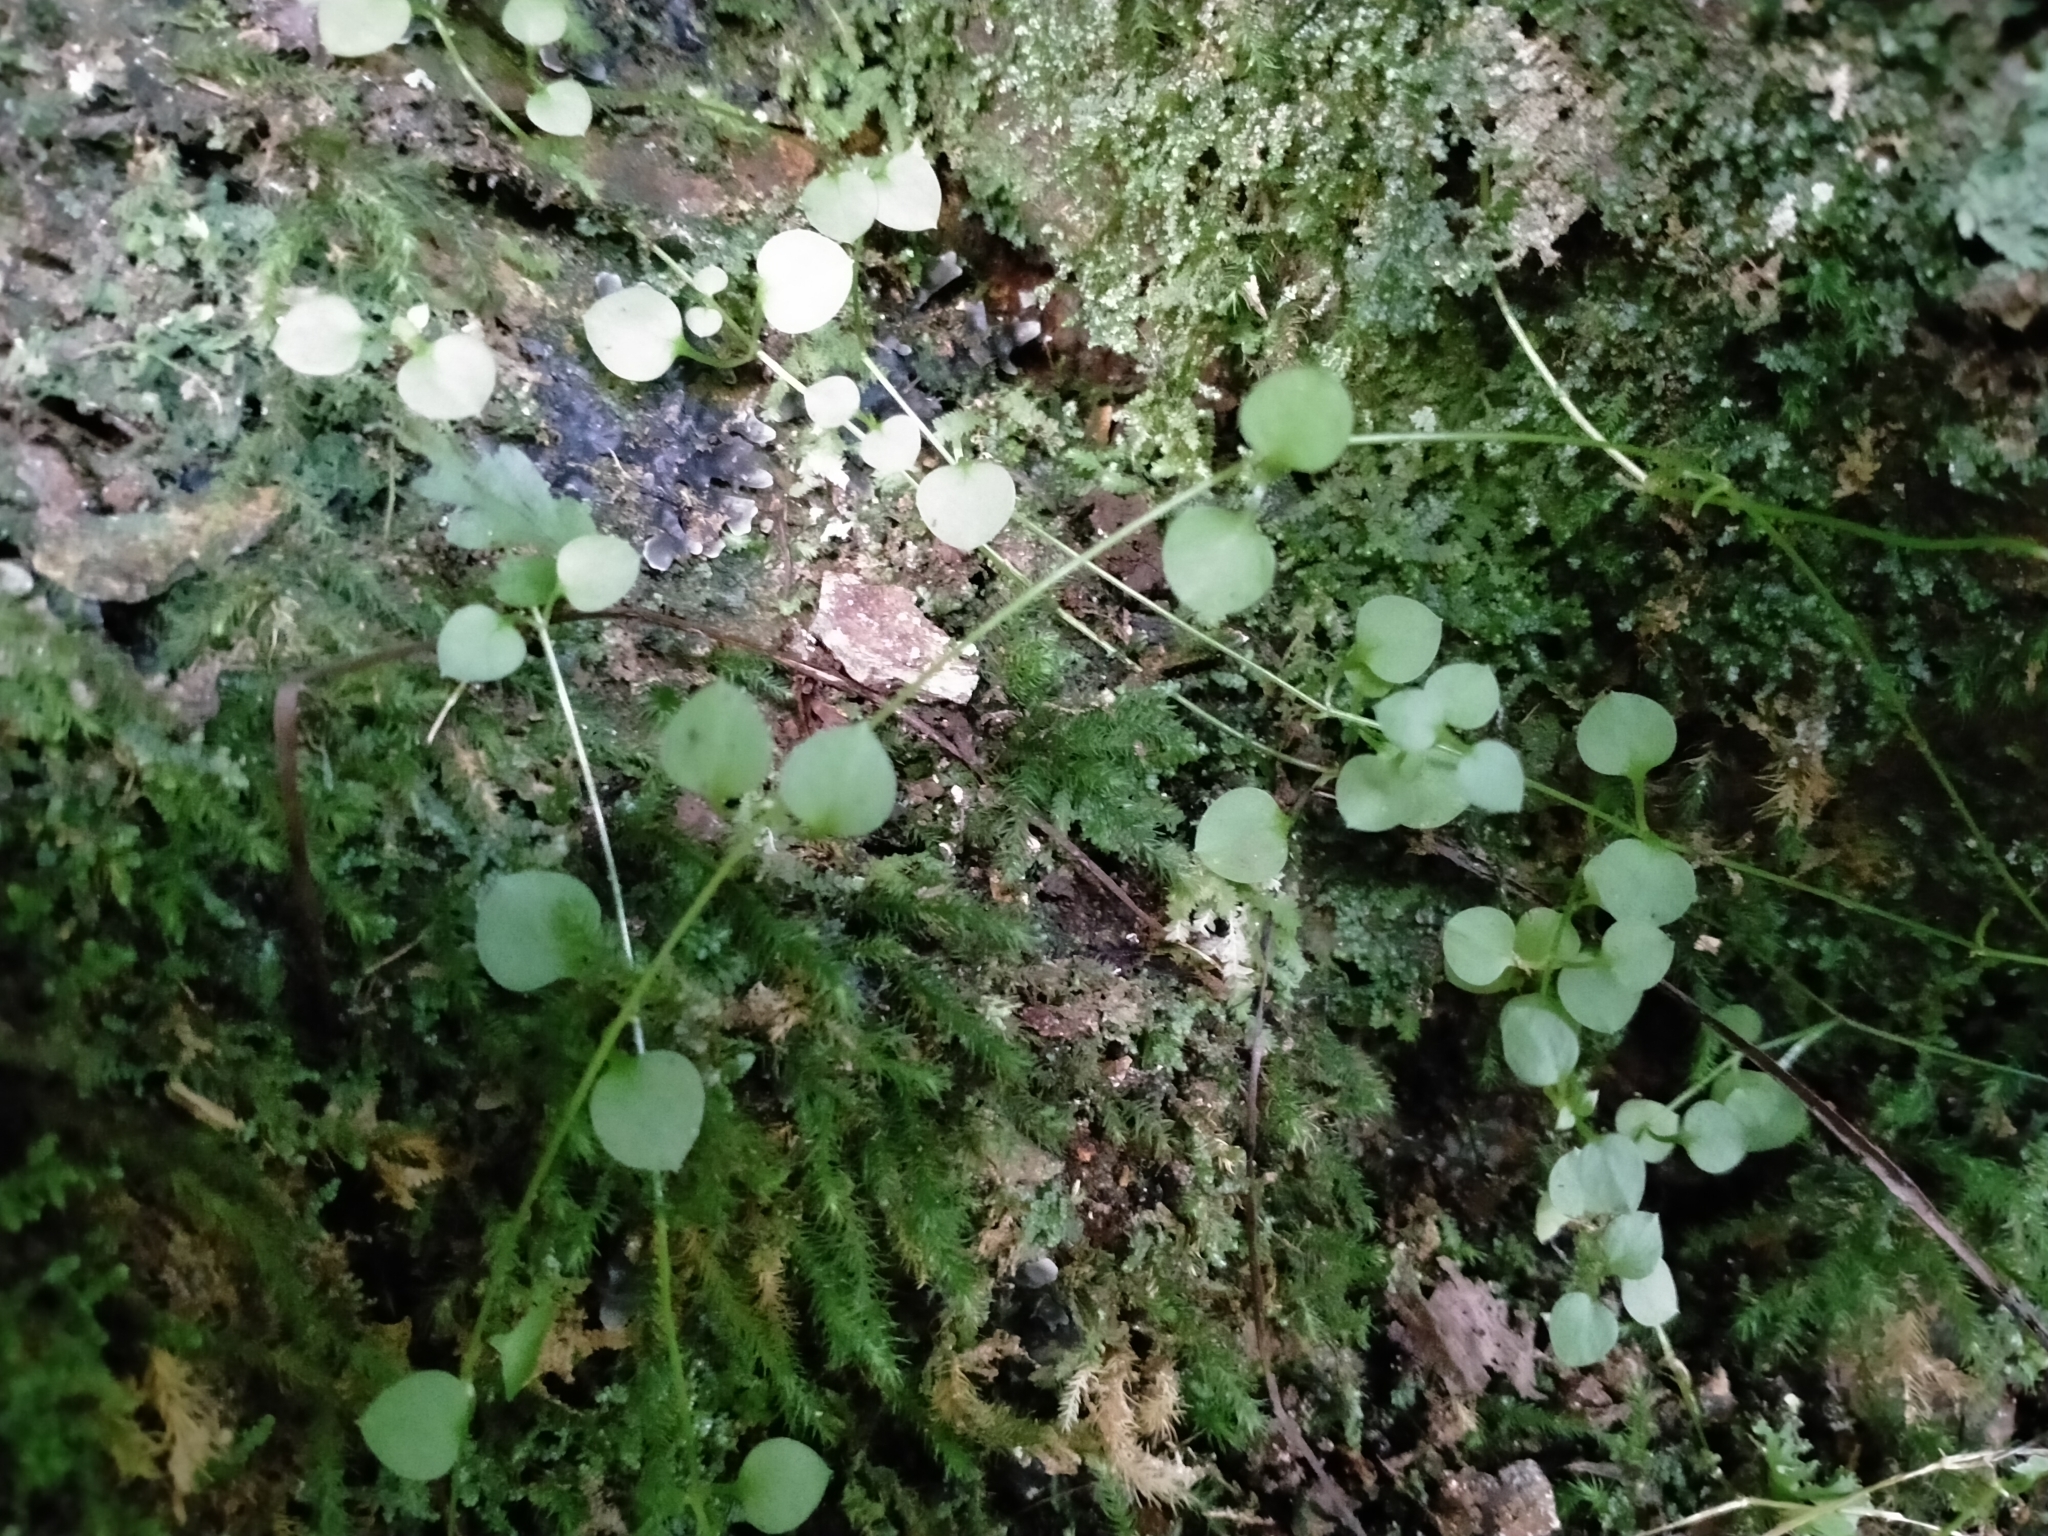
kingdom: Plantae
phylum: Tracheophyta
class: Magnoliopsida
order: Caryophyllales
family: Caryophyllaceae
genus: Stellaria
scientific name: Stellaria parviflora
